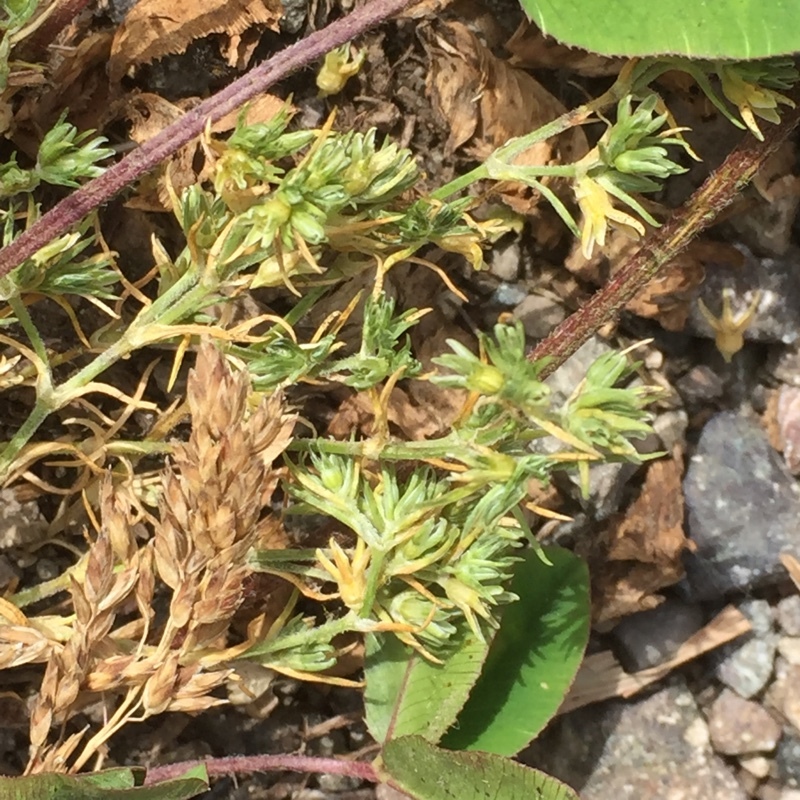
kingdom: Plantae
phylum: Tracheophyta
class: Magnoliopsida
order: Caryophyllales
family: Caryophyllaceae
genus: Scleranthus
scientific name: Scleranthus annuus
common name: Annual knawel
